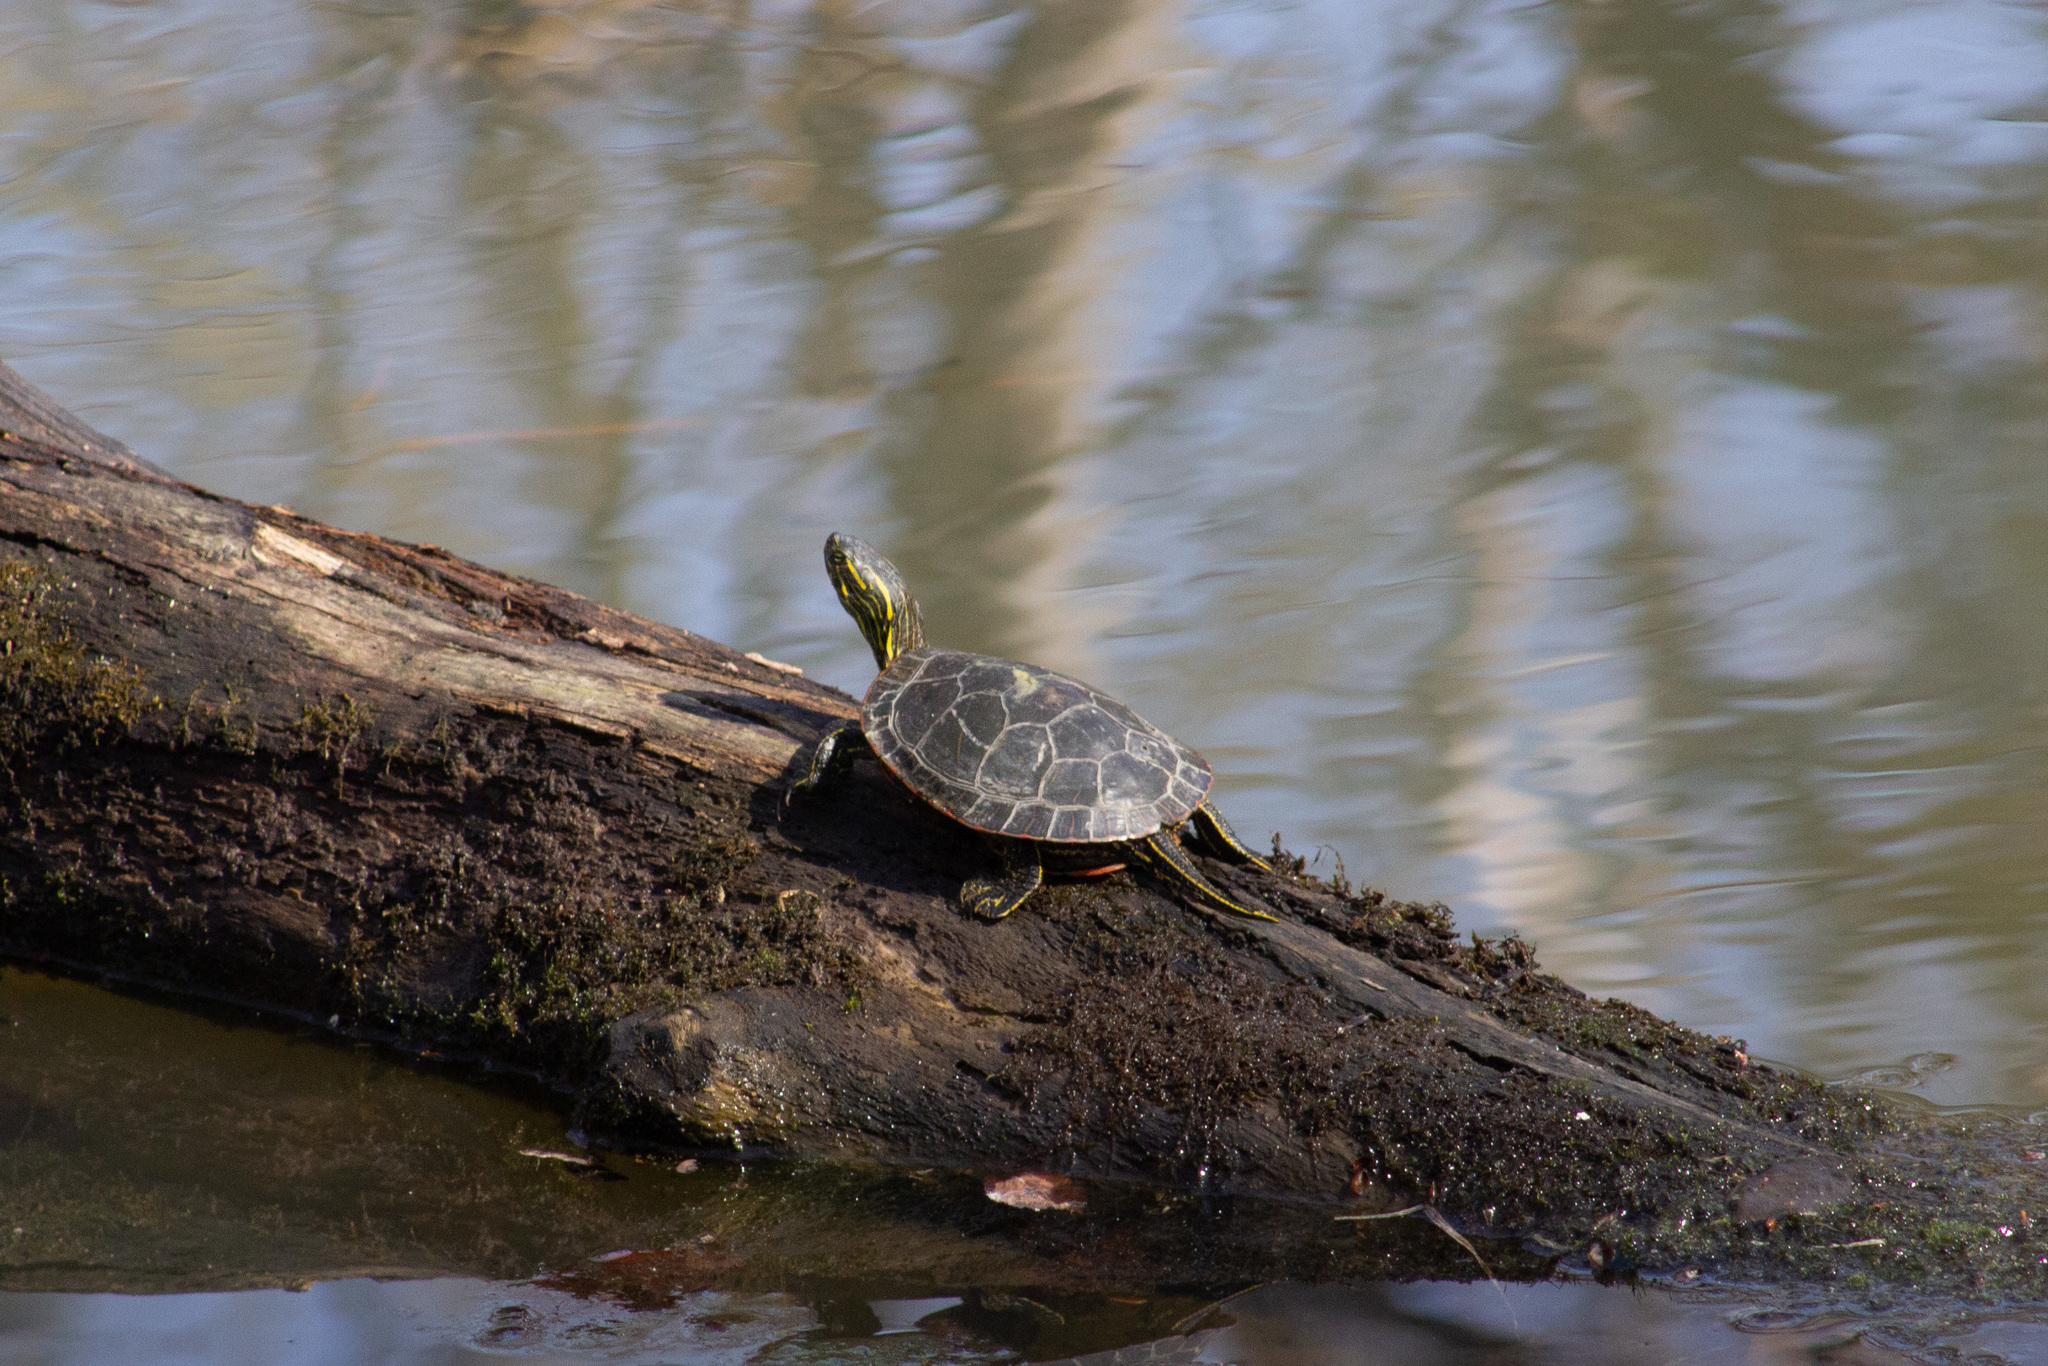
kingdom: Animalia
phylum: Chordata
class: Testudines
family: Emydidae
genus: Chrysemys
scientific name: Chrysemys picta
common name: Painted turtle
